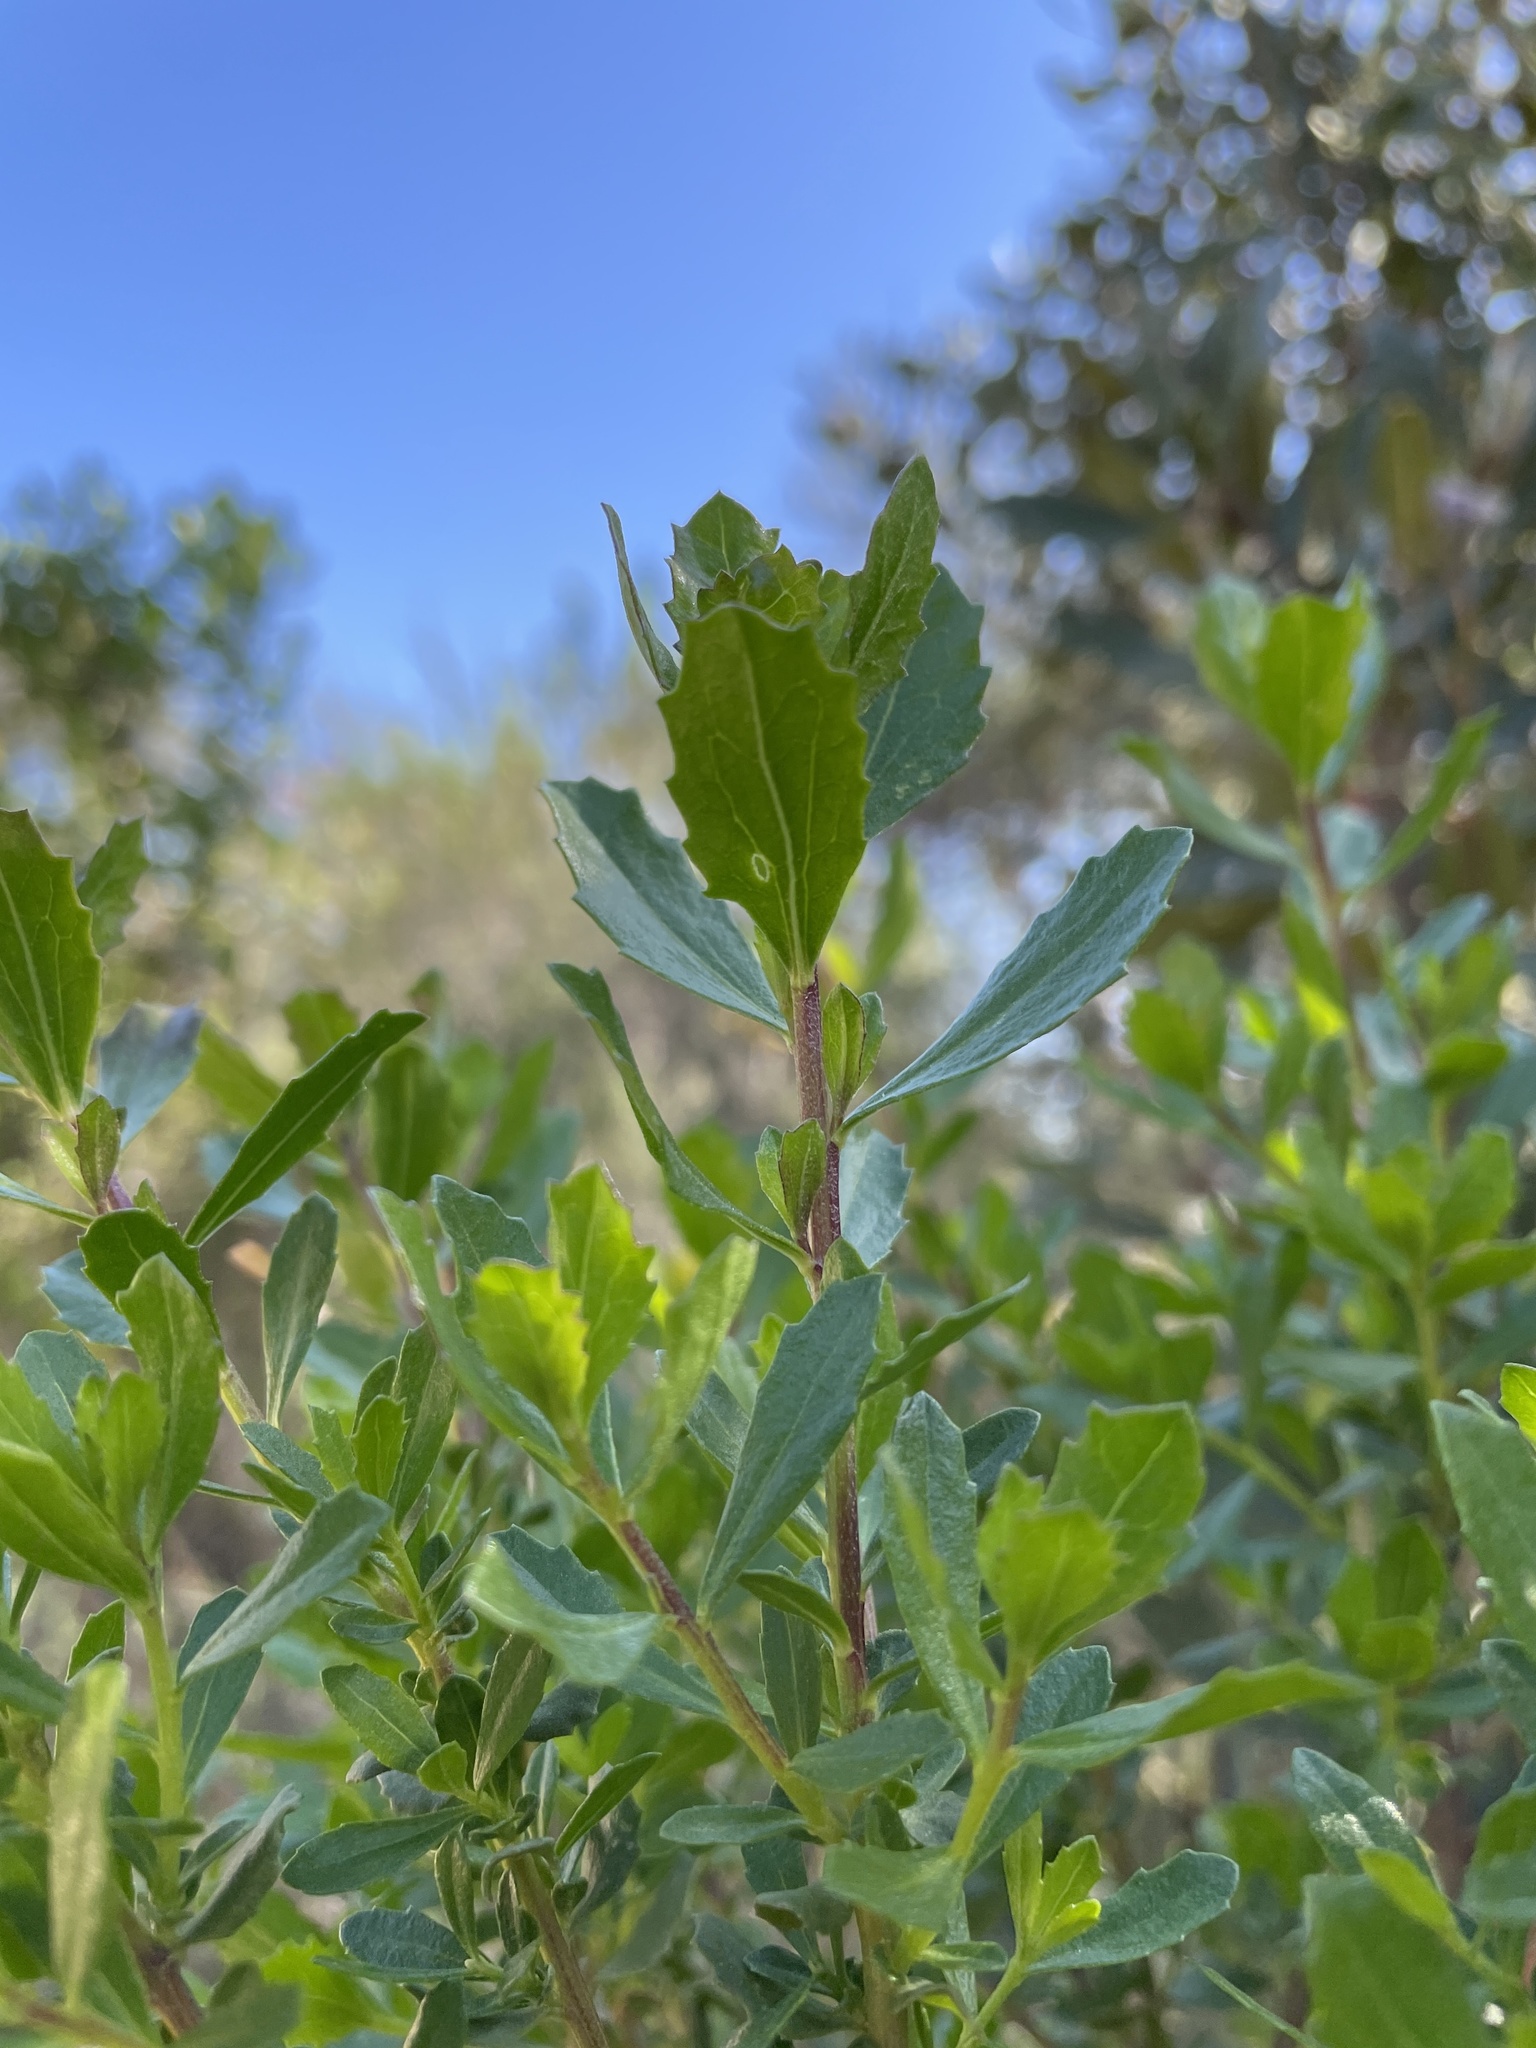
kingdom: Plantae
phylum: Tracheophyta
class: Magnoliopsida
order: Asterales
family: Asteraceae
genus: Baccharis
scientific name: Baccharis pilularis
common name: Coyotebrush
